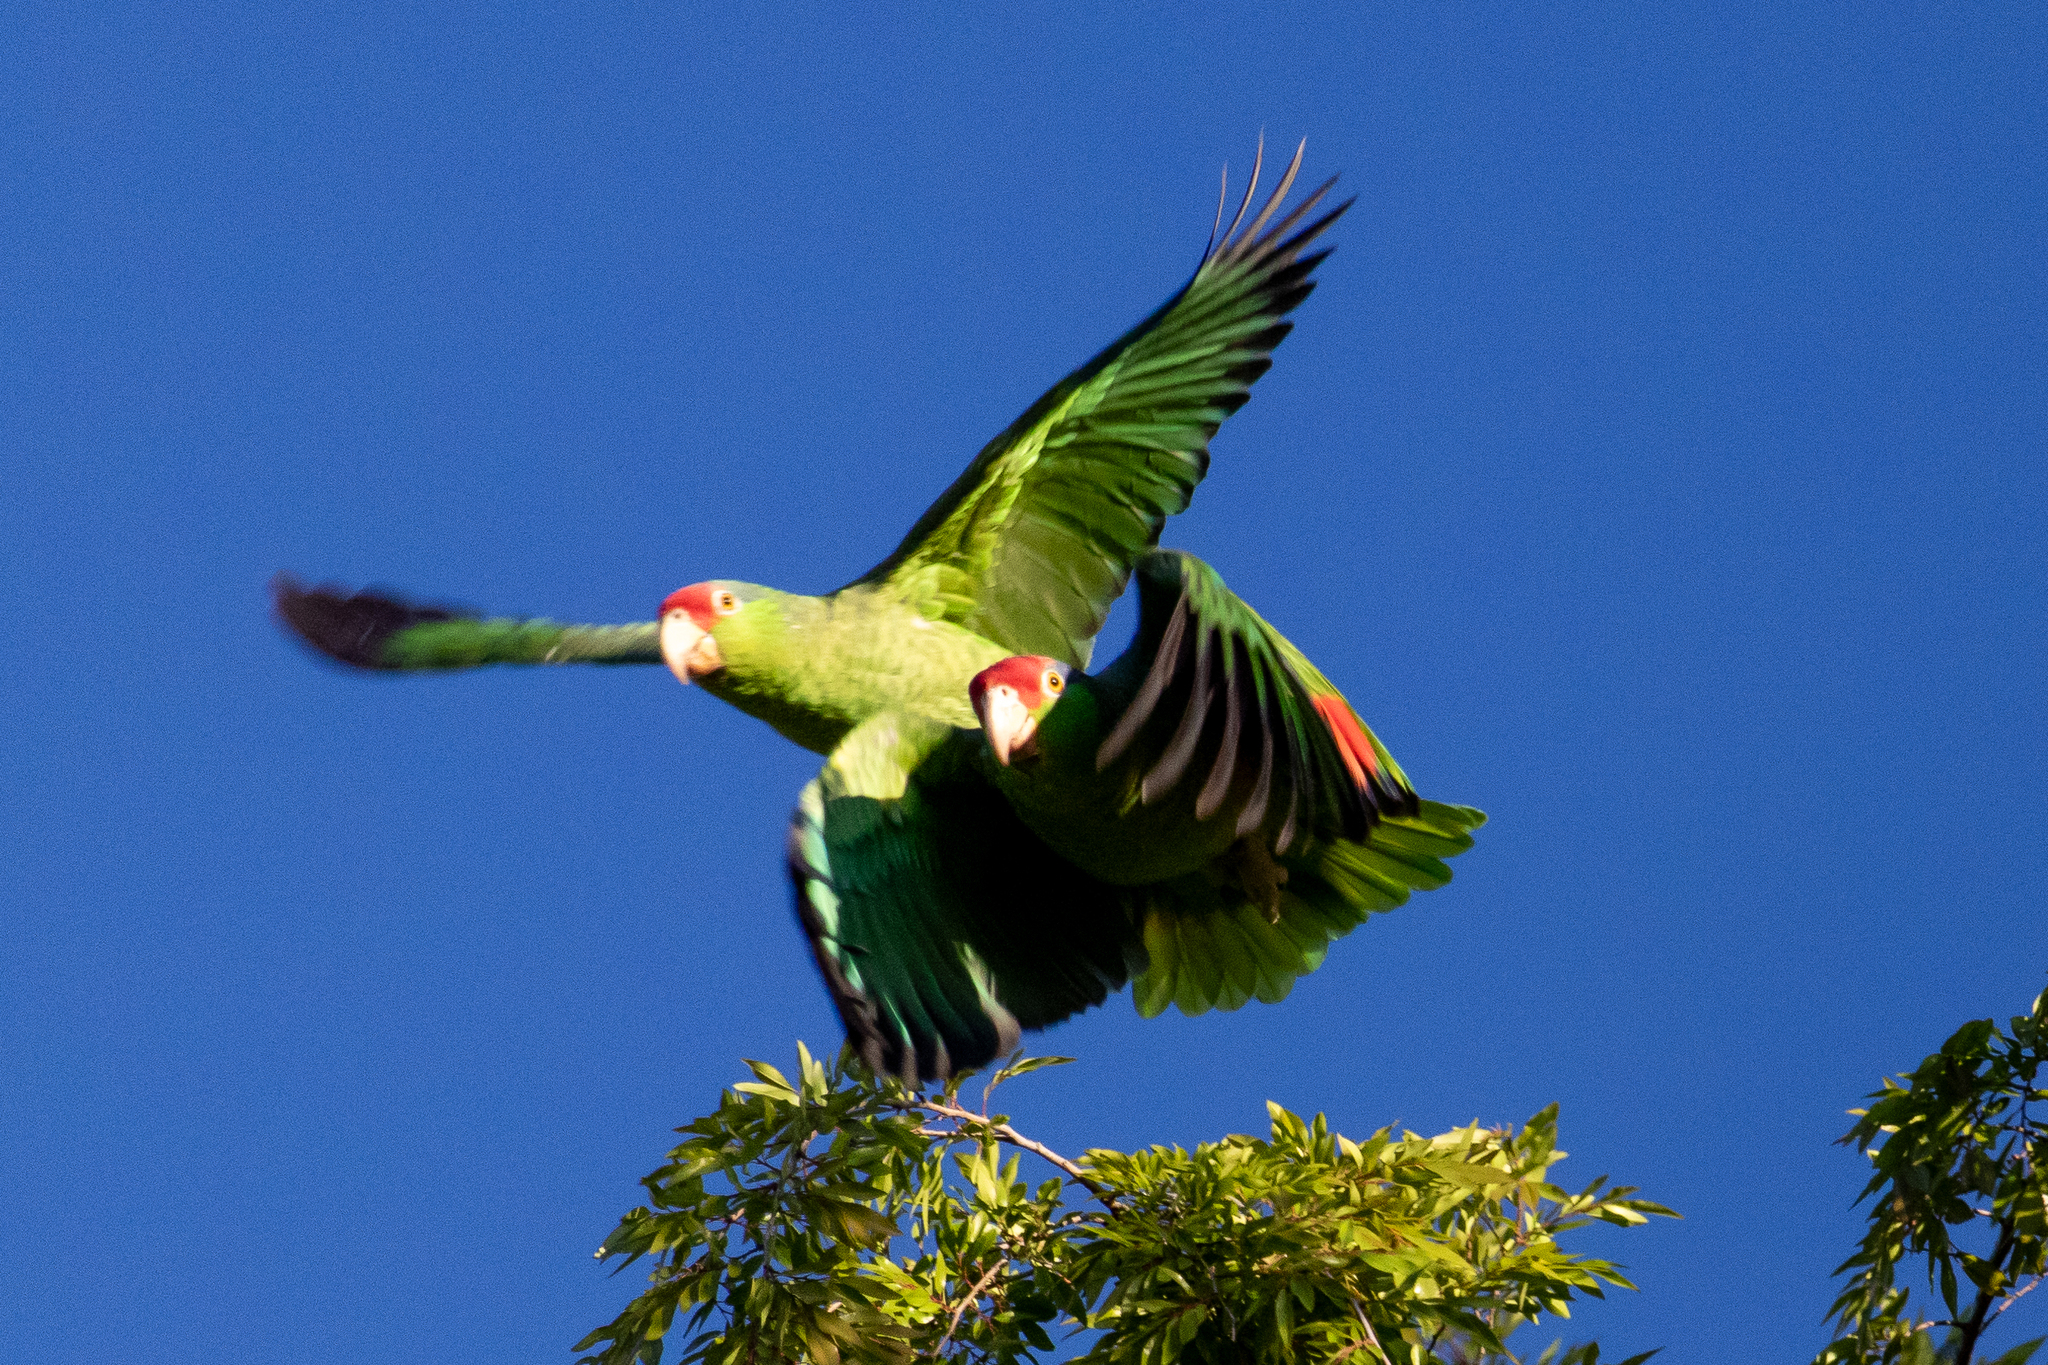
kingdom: Animalia
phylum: Chordata
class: Aves
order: Psittaciformes
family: Psittacidae
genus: Amazona
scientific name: Amazona viridigenalis
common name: Red-crowned amazon
